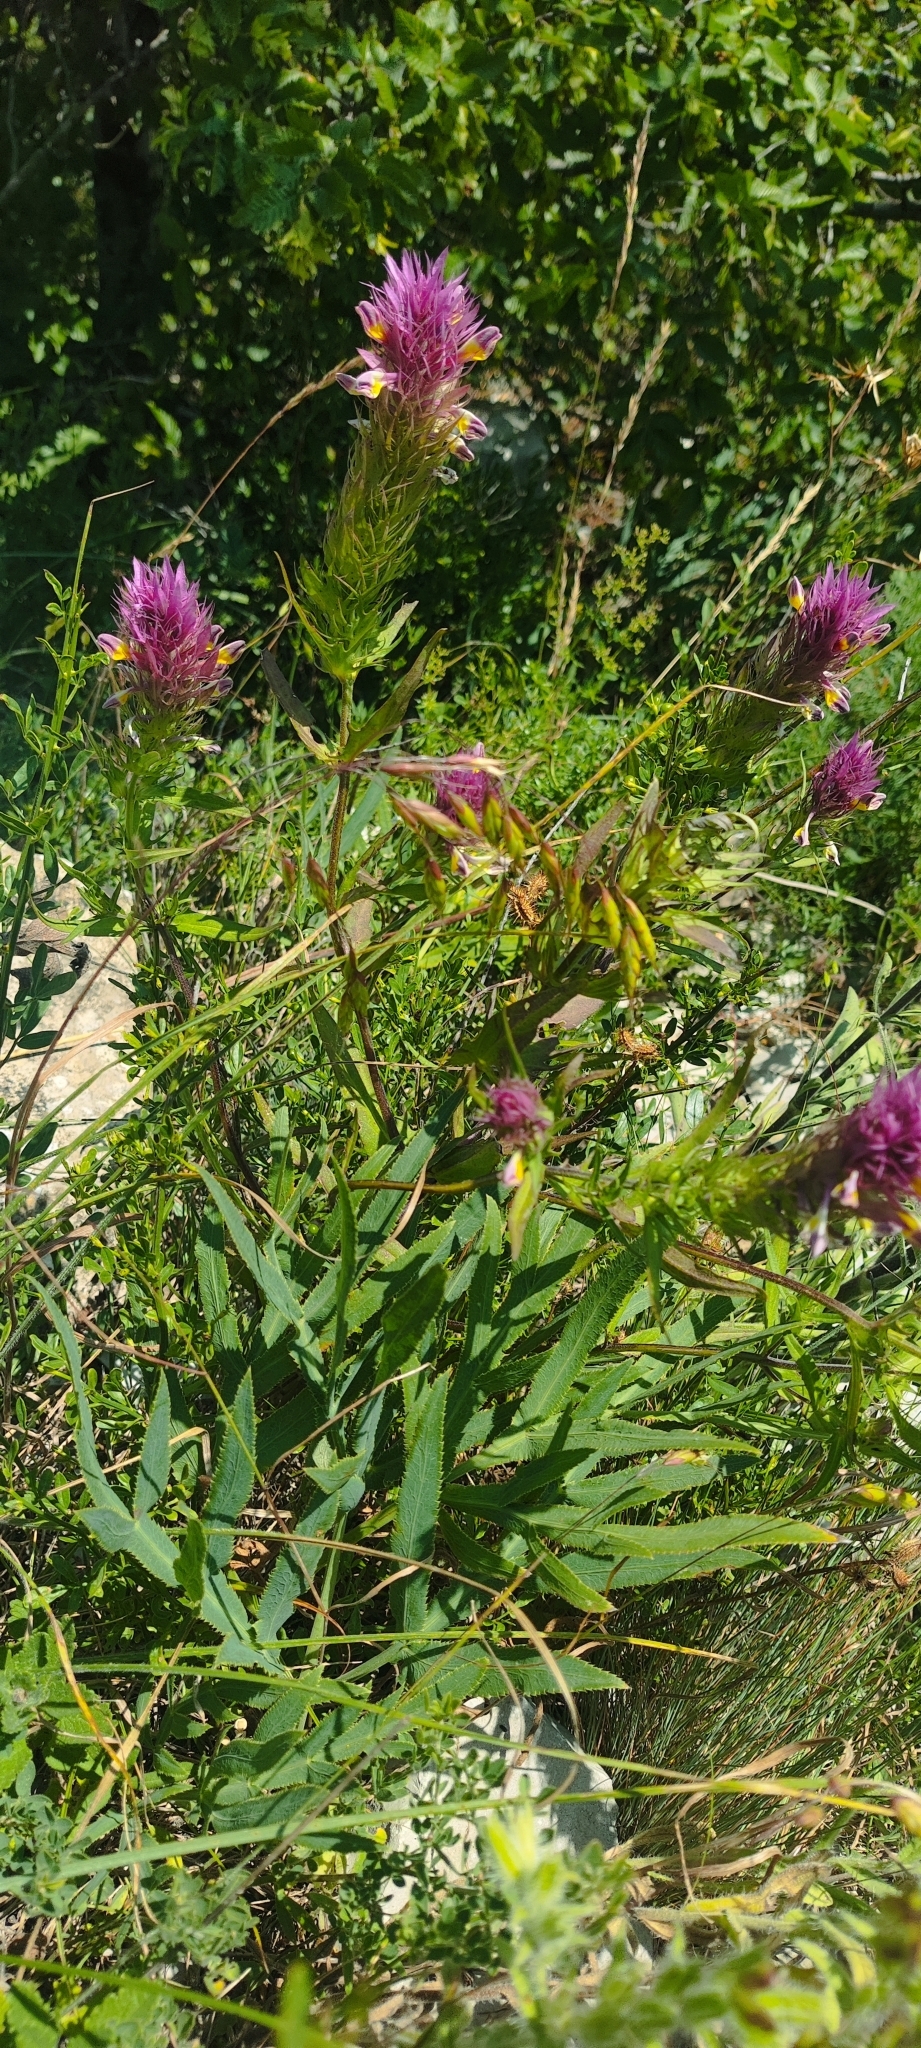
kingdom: Plantae
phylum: Tracheophyta
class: Magnoliopsida
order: Lamiales
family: Orobanchaceae
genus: Melampyrum
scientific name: Melampyrum arvense
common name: Field cow-wheat
